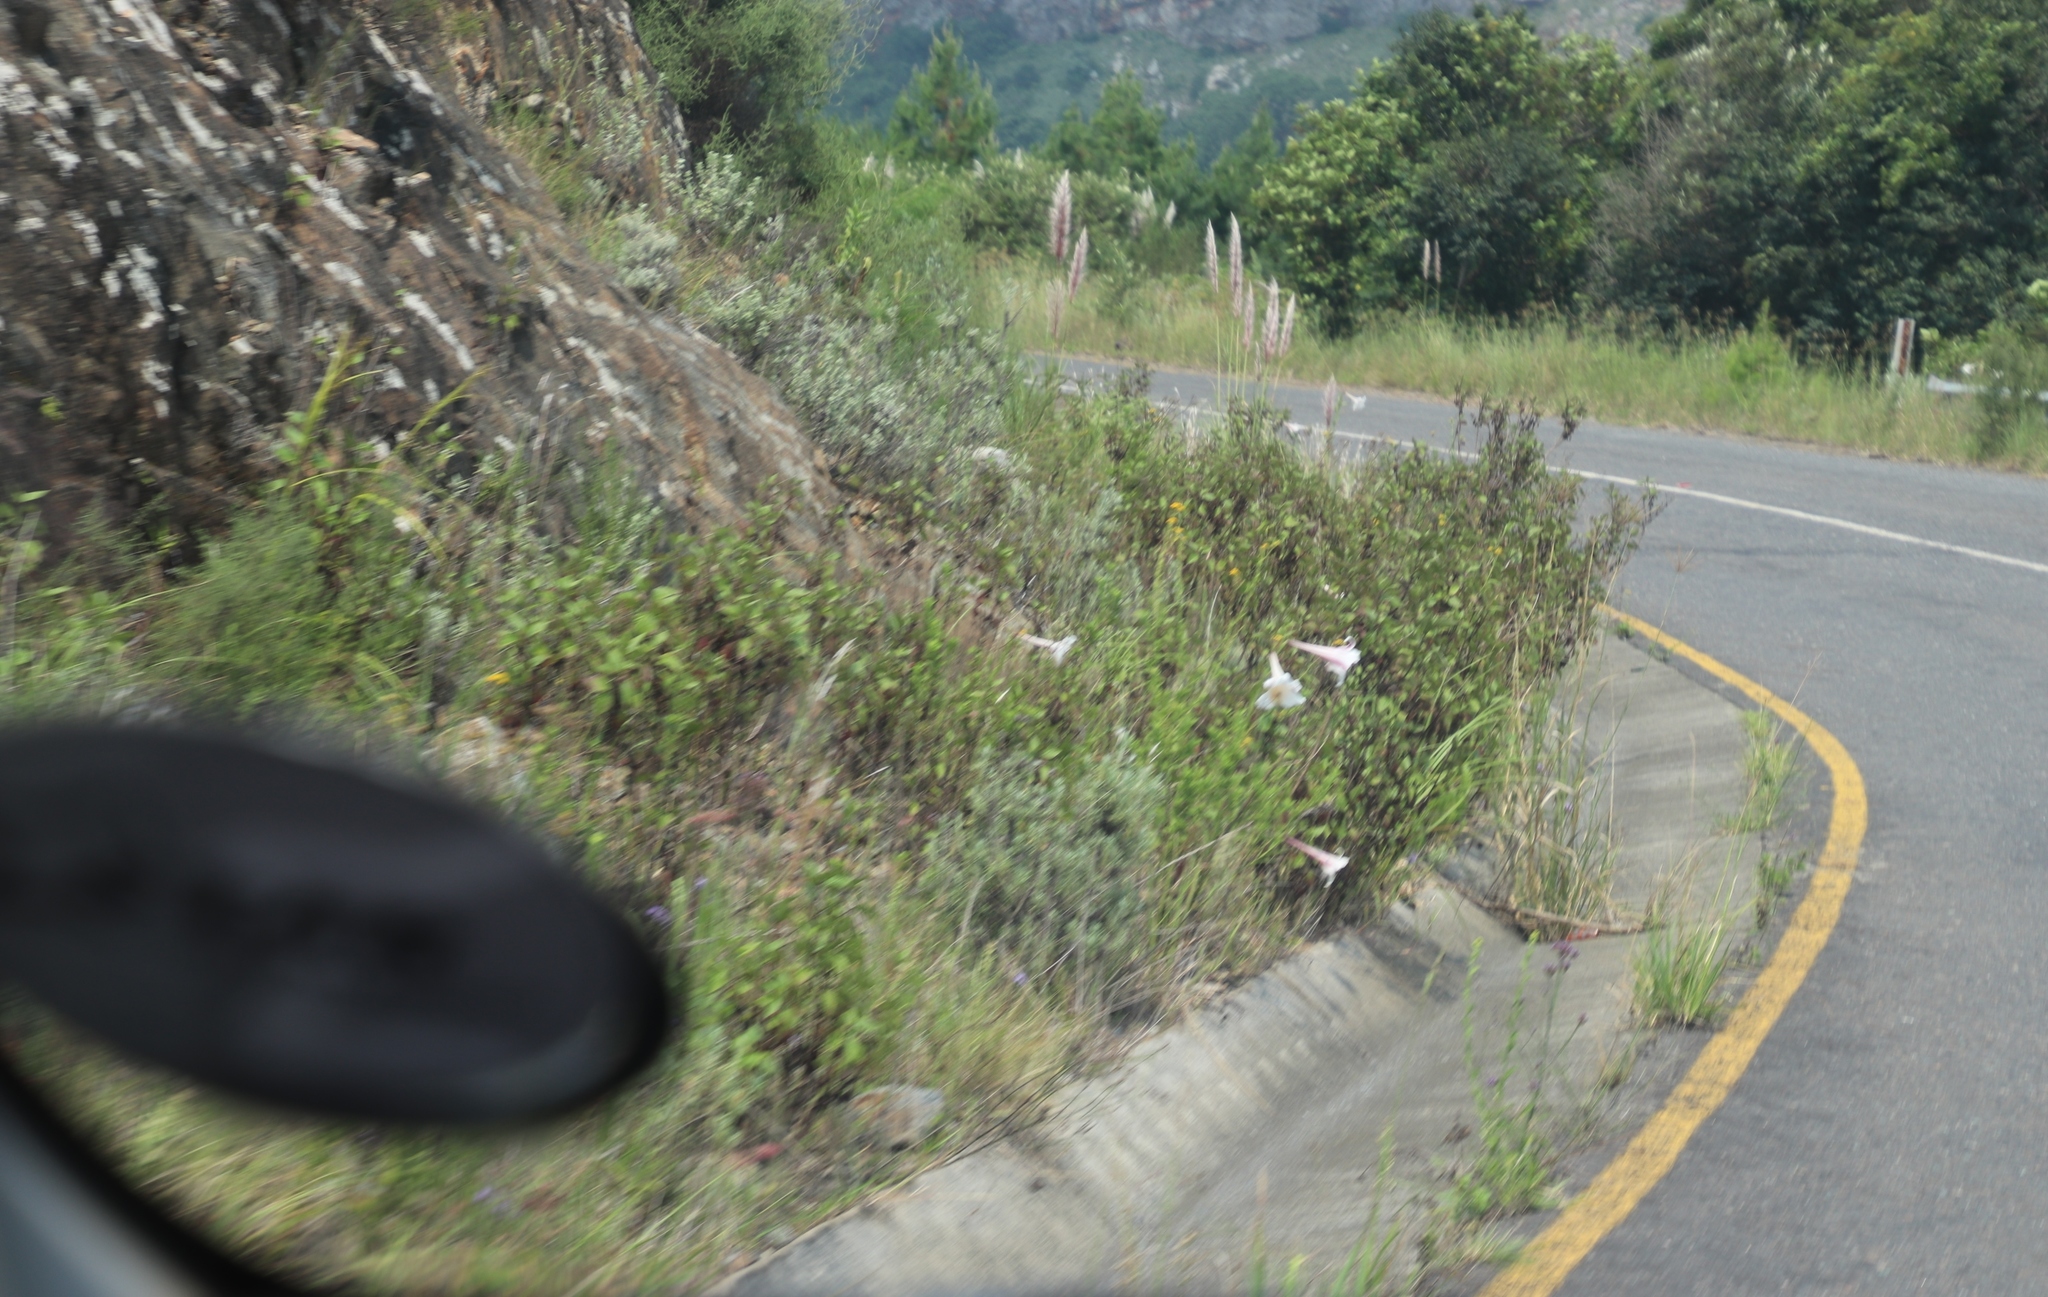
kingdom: Plantae
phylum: Tracheophyta
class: Liliopsida
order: Liliales
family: Liliaceae
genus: Lilium
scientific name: Lilium formosanum
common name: Formosa lily
